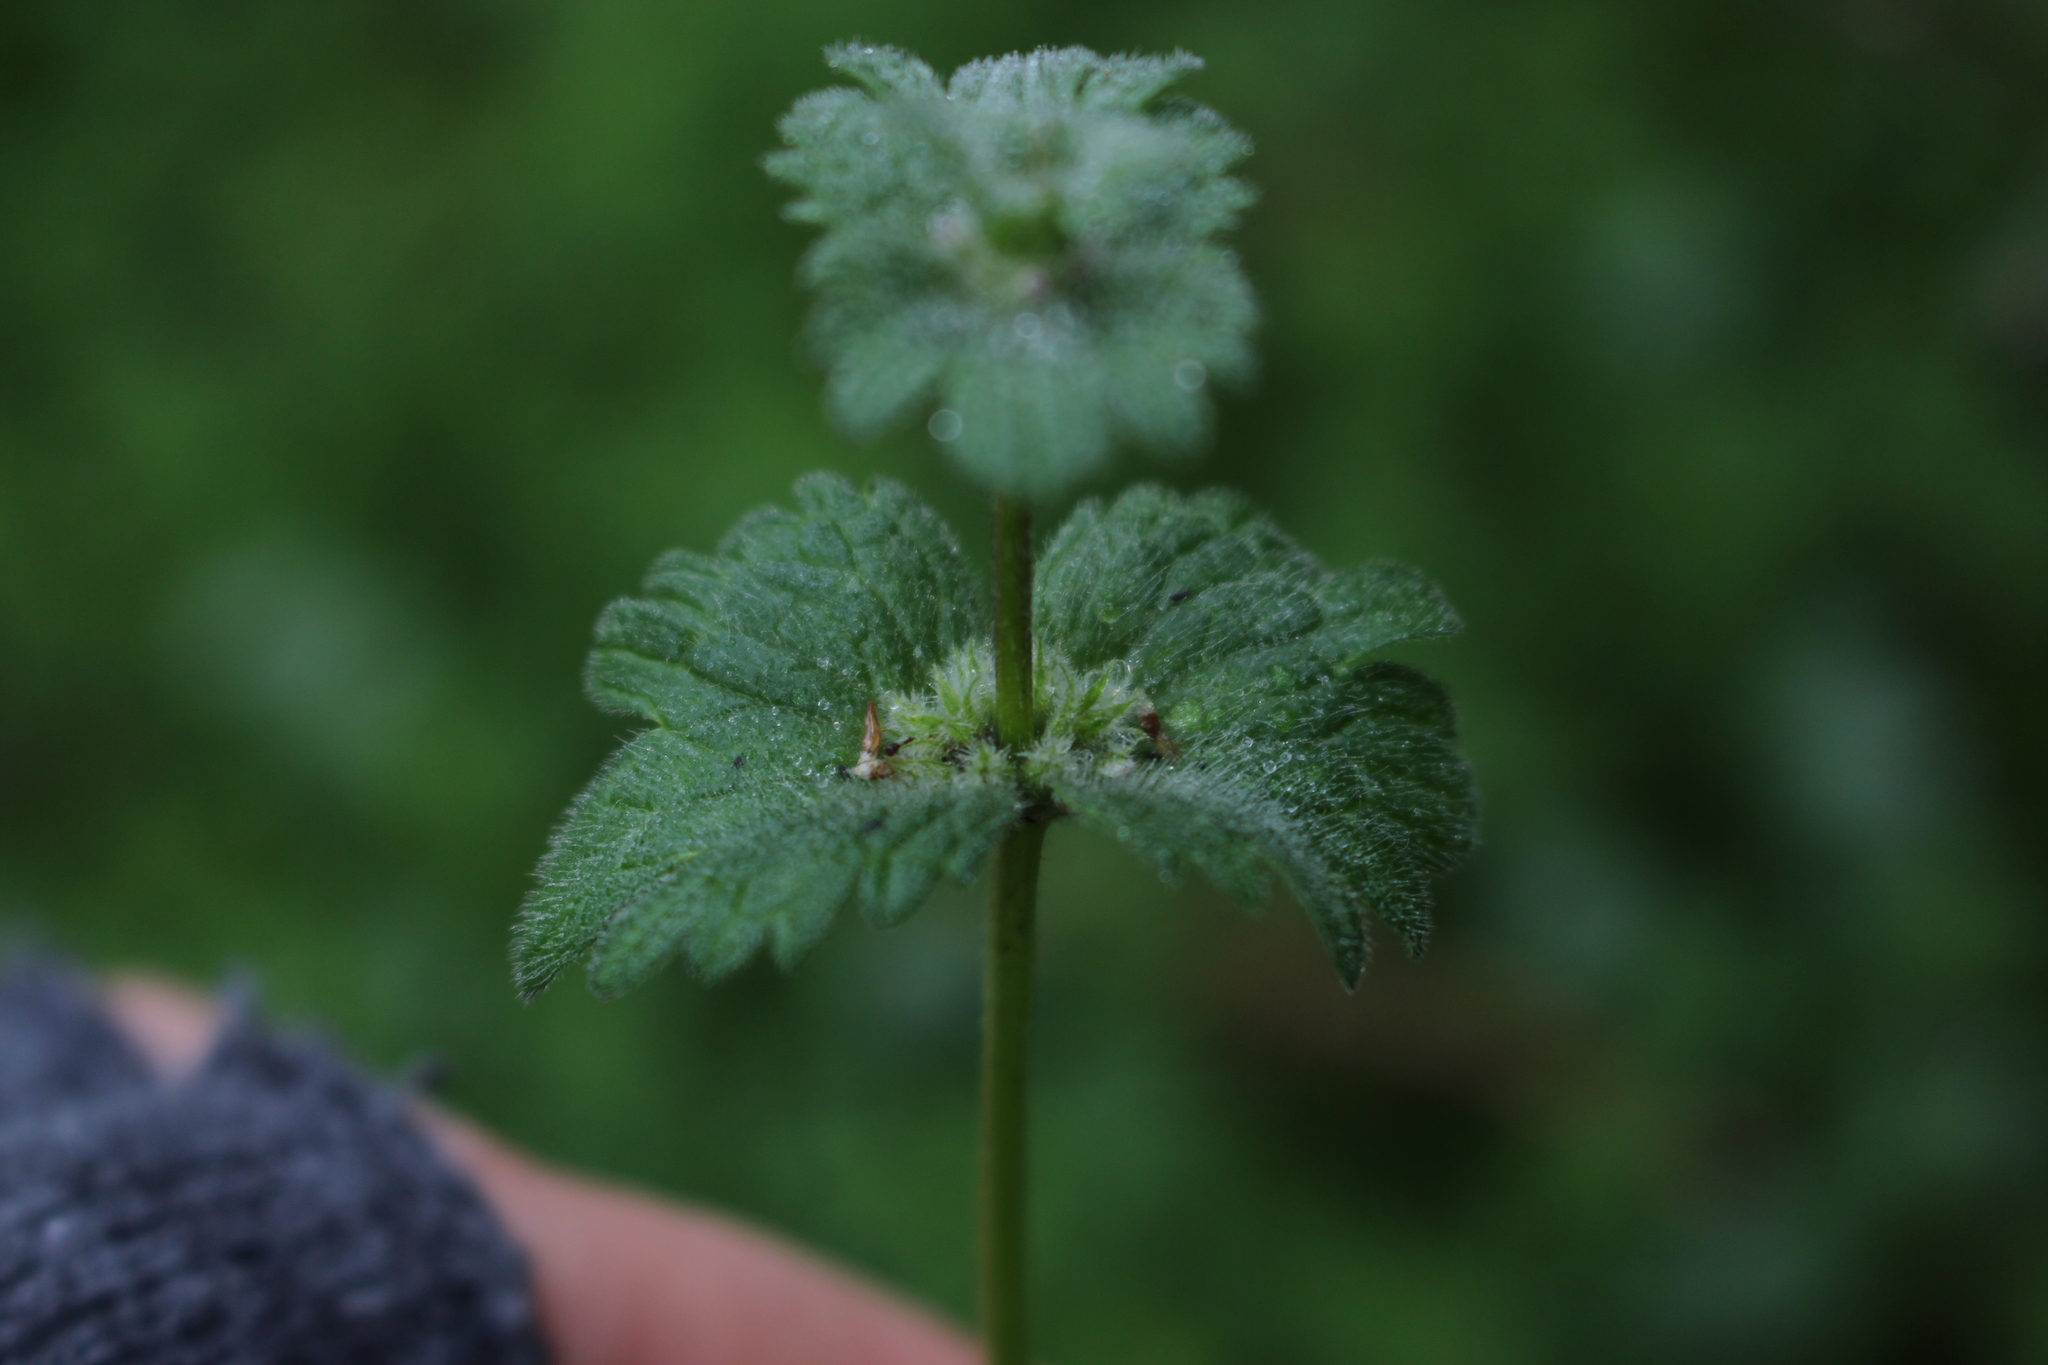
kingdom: Plantae
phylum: Tracheophyta
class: Magnoliopsida
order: Lamiales
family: Lamiaceae
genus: Lamium
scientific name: Lamium amplexicaule
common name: Henbit dead-nettle
